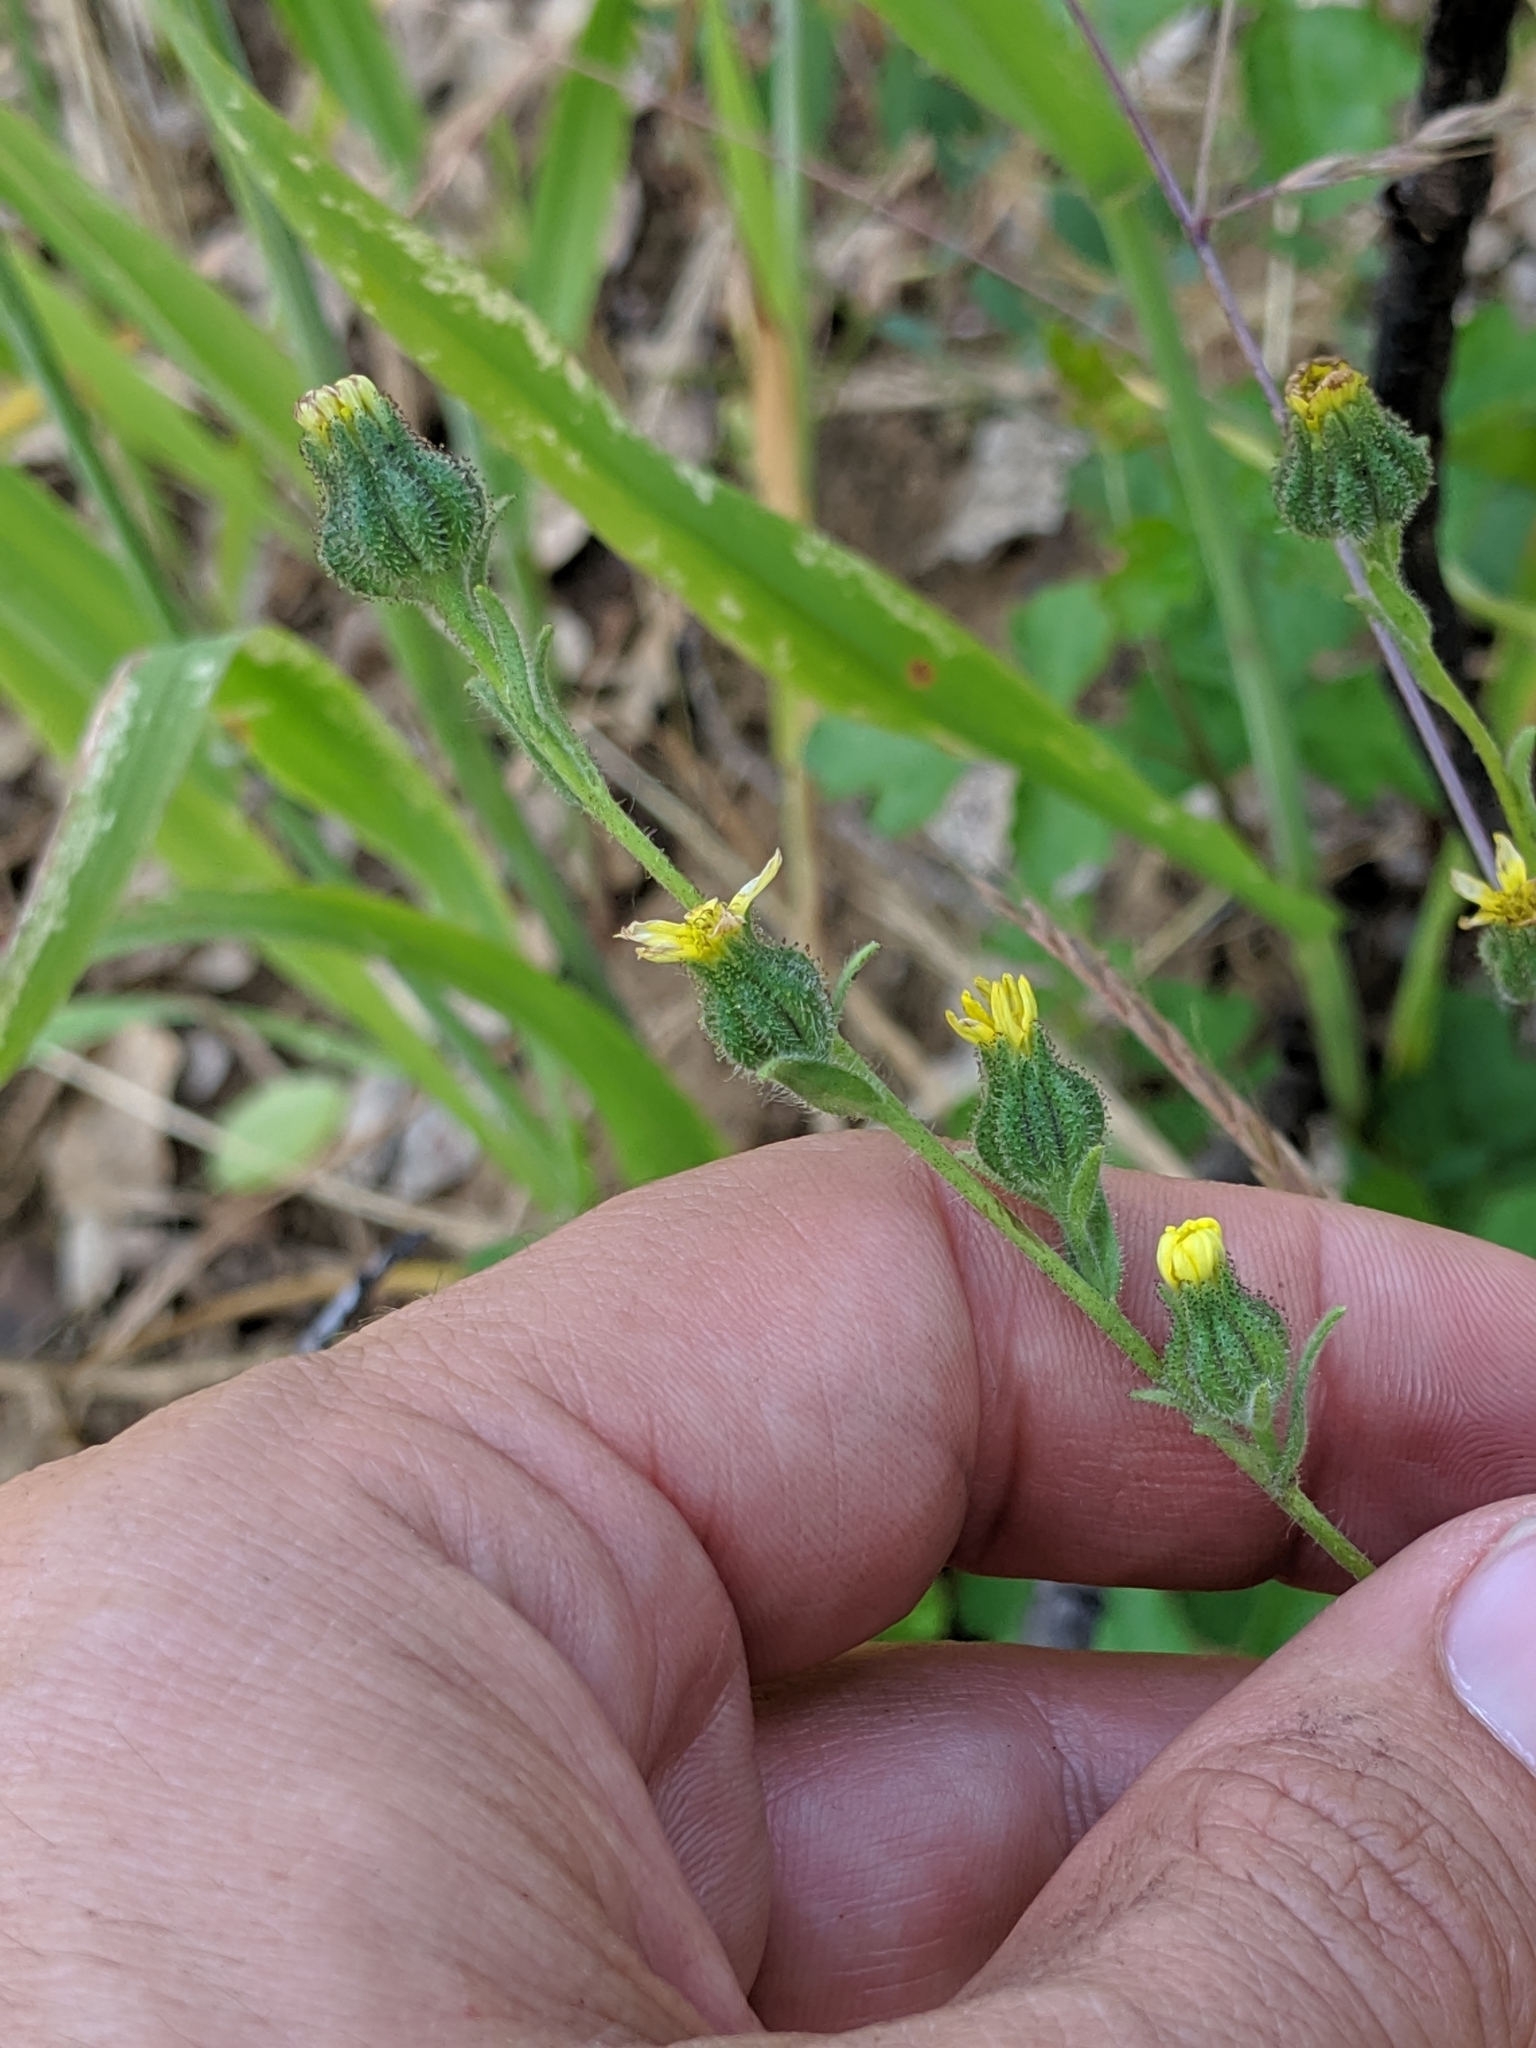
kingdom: Plantae
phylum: Tracheophyta
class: Magnoliopsida
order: Asterales
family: Asteraceae
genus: Madia
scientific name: Madia gracilis
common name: Grassy tarweed
